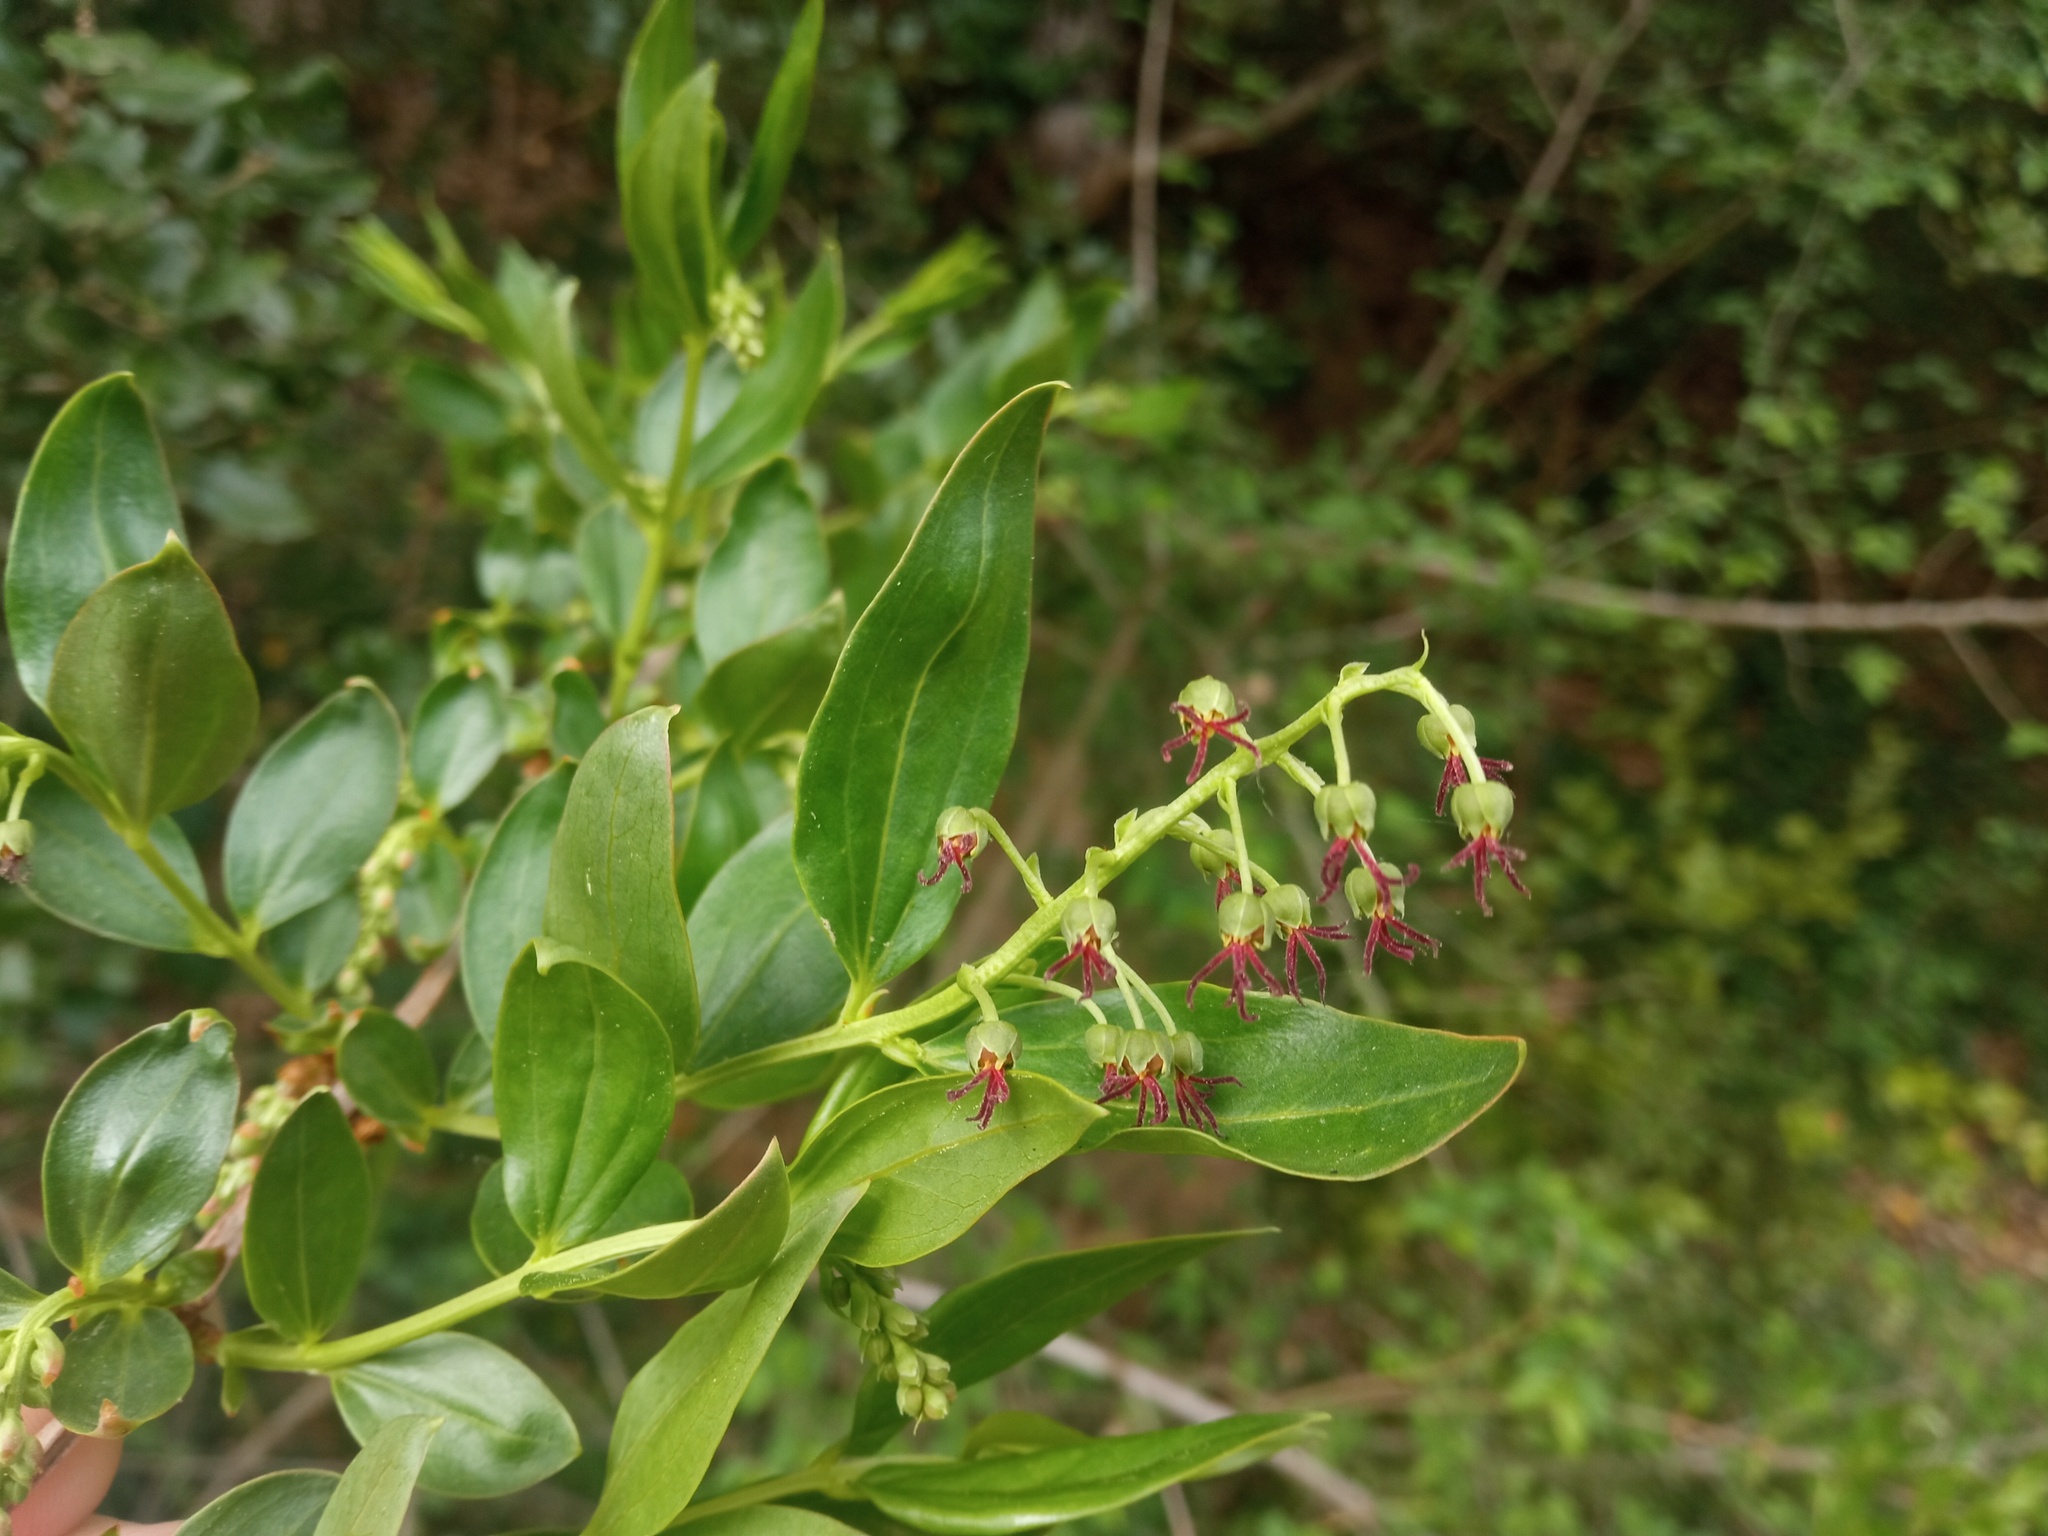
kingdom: Plantae
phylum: Tracheophyta
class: Magnoliopsida
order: Cucurbitales
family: Coriariaceae
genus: Coriaria
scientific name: Coriaria myrtifolia
